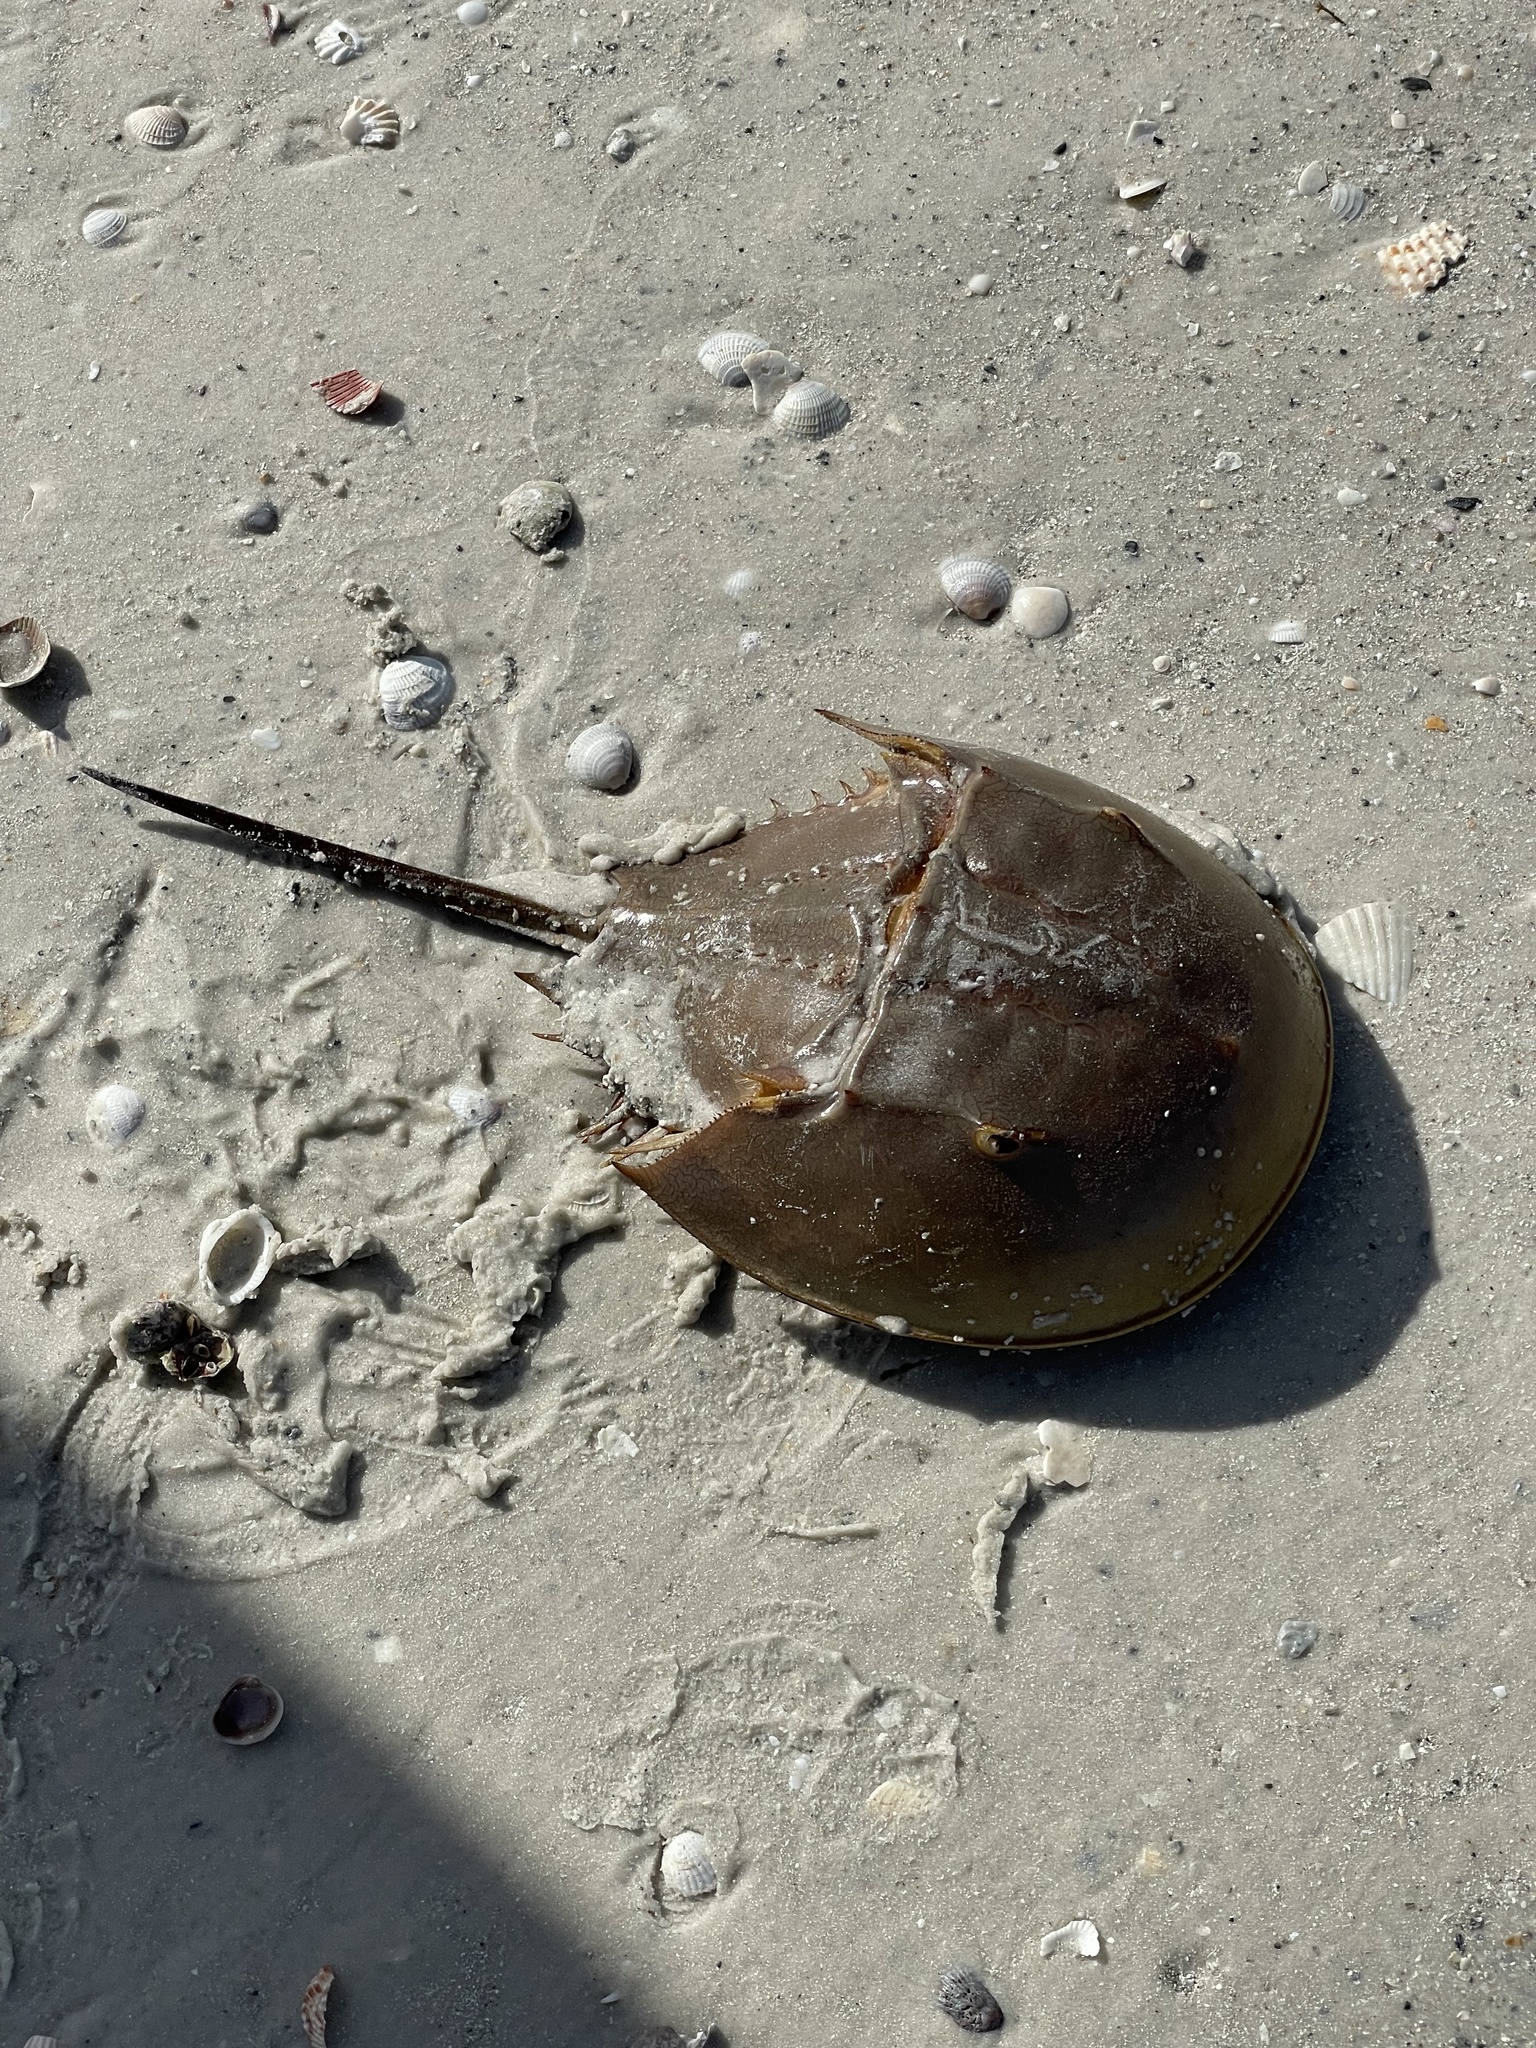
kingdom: Animalia
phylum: Arthropoda
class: Merostomata
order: Xiphosurida
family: Limulidae
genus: Limulus
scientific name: Limulus polyphemus
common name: Horseshoe crab
